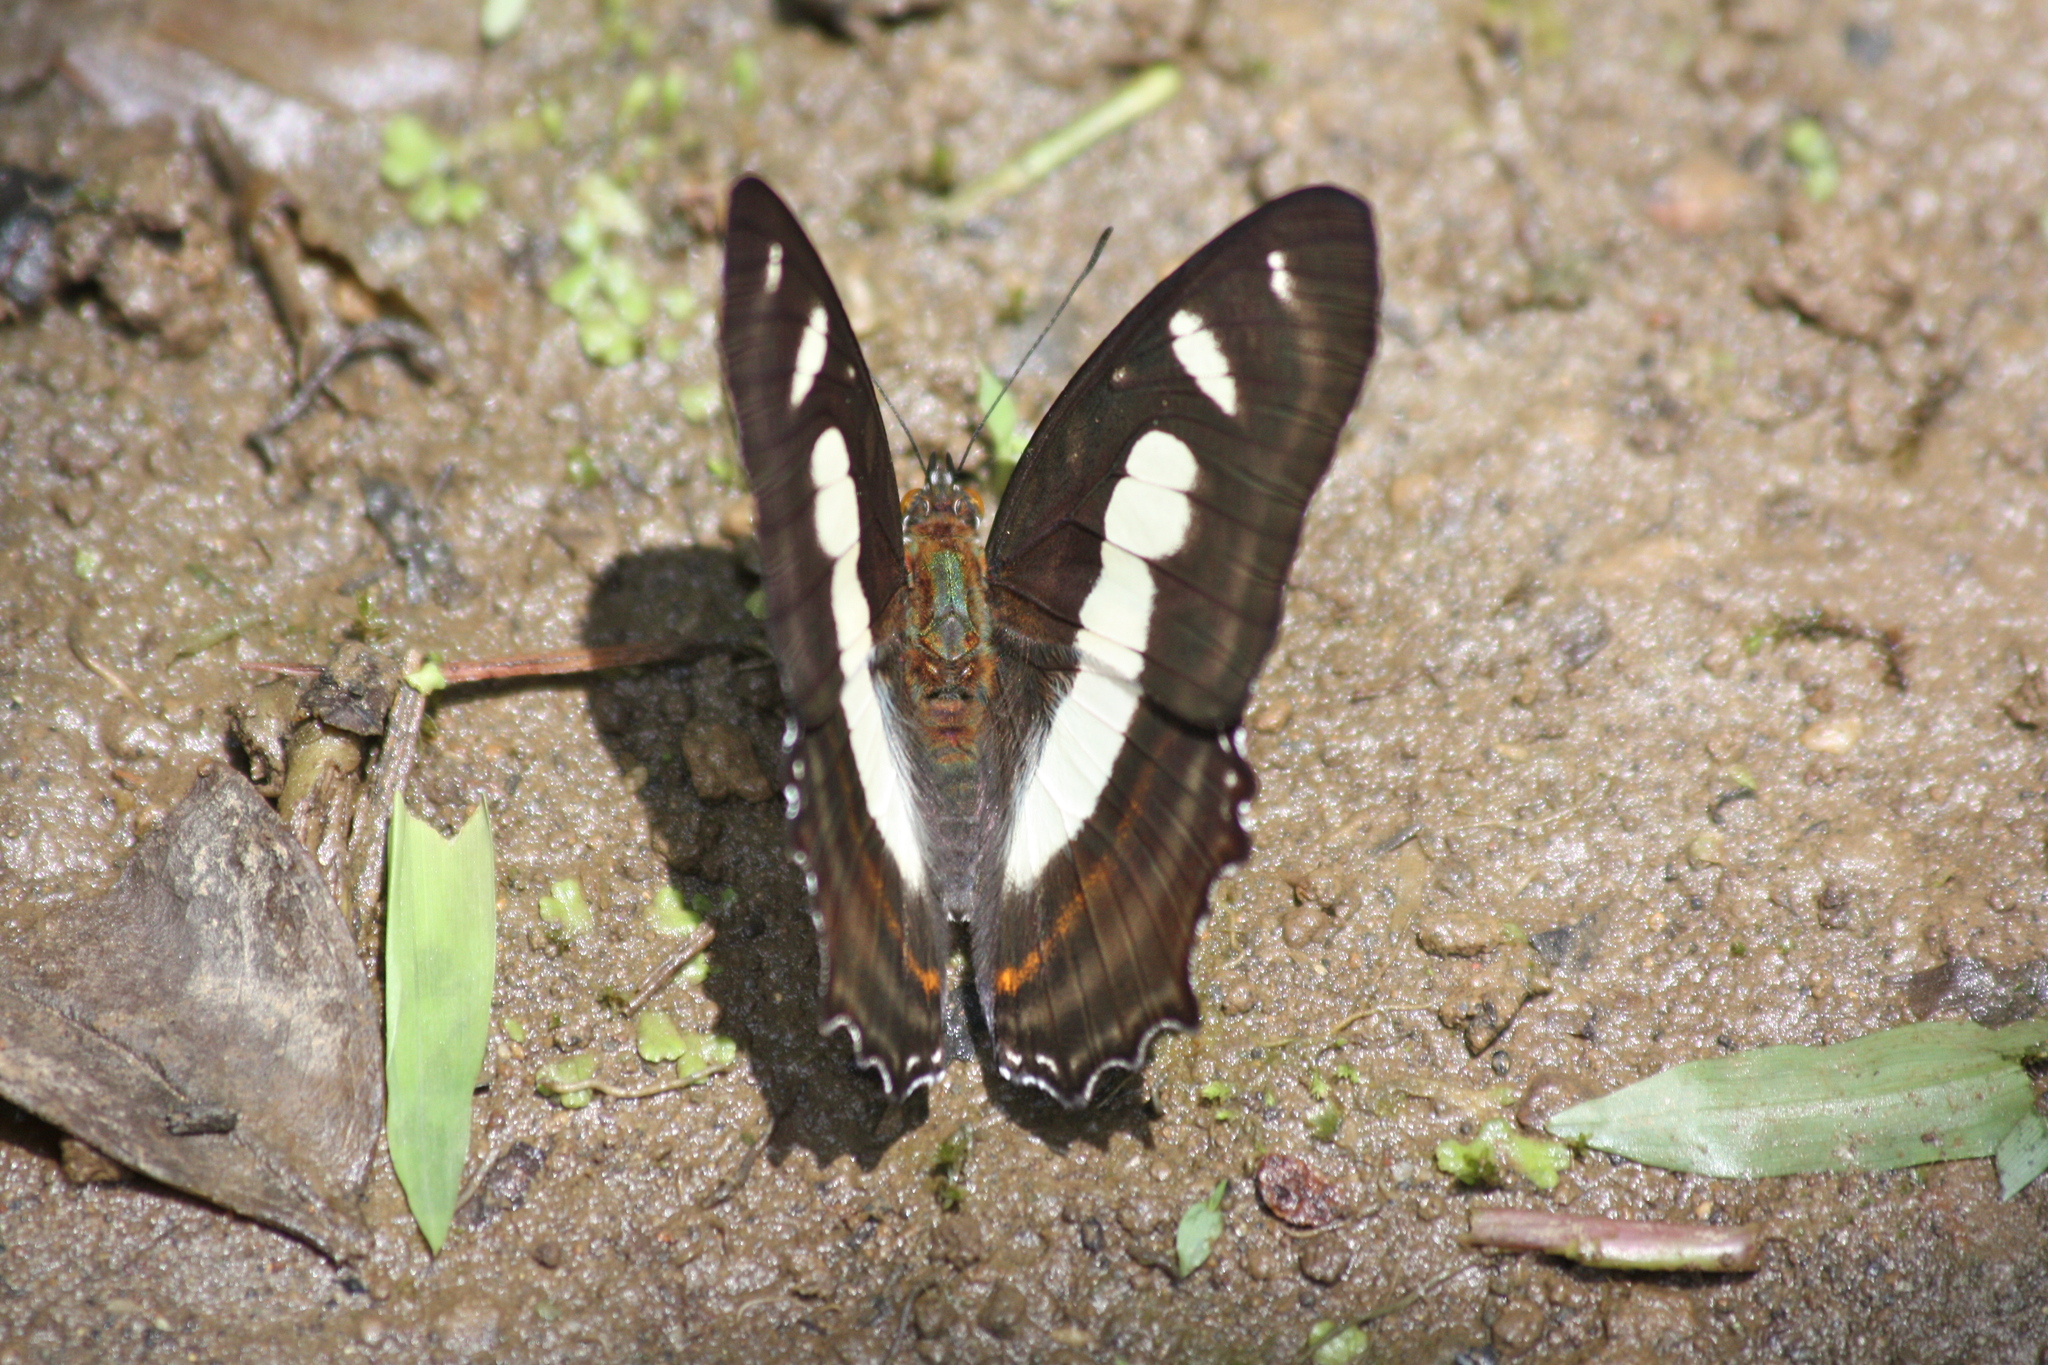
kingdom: Animalia
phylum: Arthropoda
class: Insecta
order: Lepidoptera
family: Nymphalidae
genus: Metamorpha
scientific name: Metamorpha elissa
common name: Elissa page
